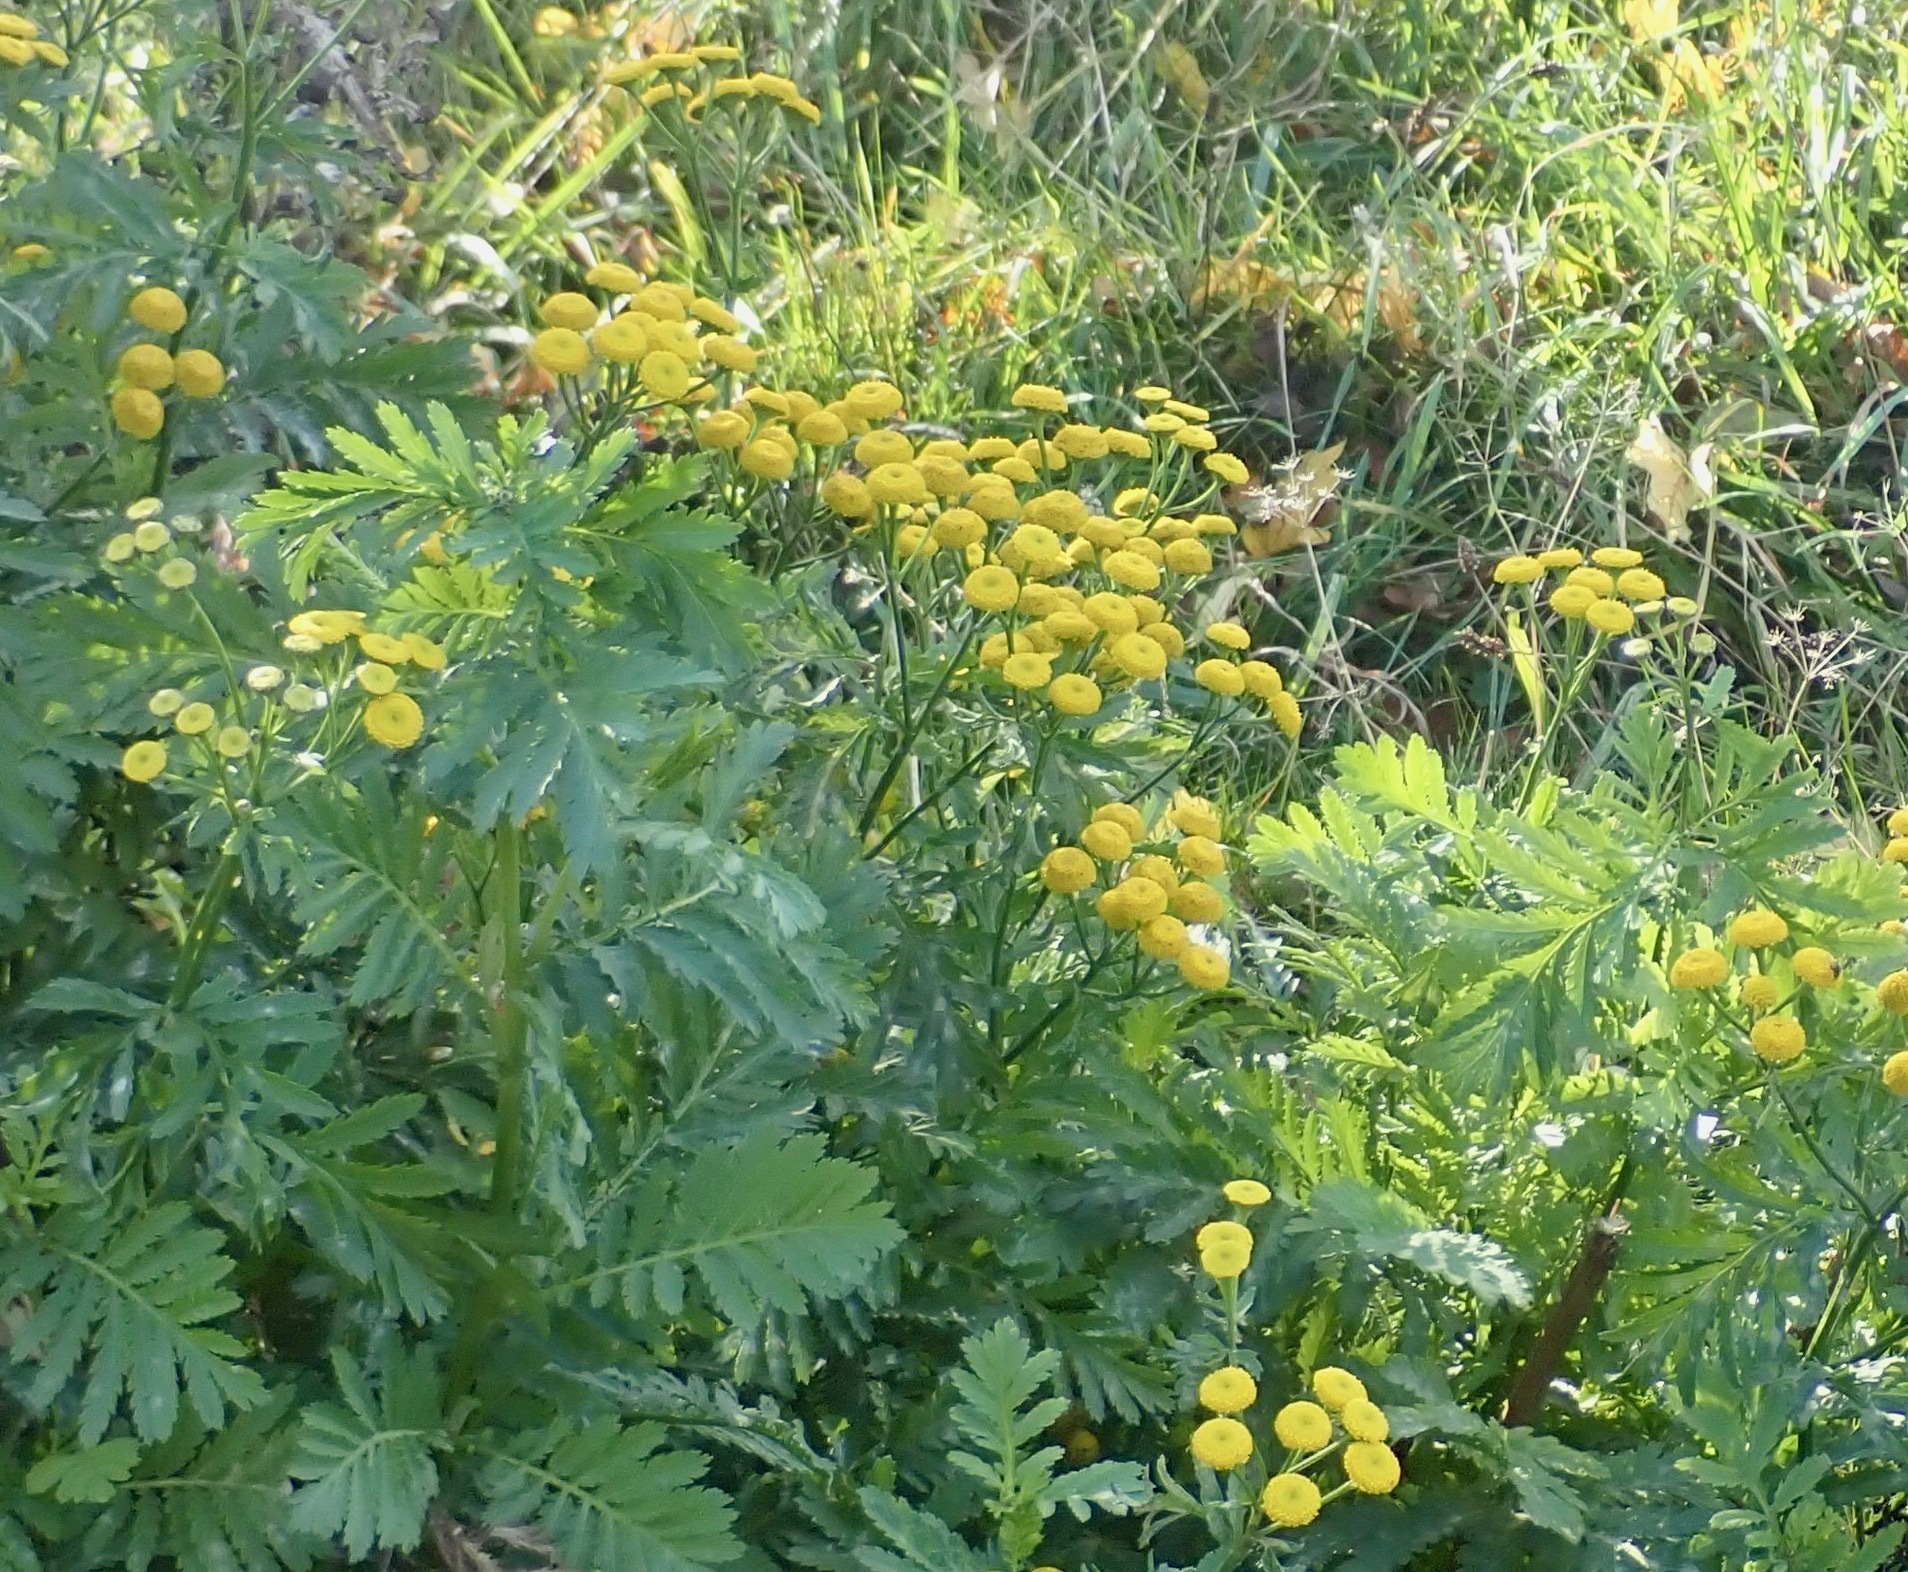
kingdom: Plantae
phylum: Tracheophyta
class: Magnoliopsida
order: Asterales
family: Asteraceae
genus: Tanacetum
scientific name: Tanacetum vulgare
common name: Common tansy
